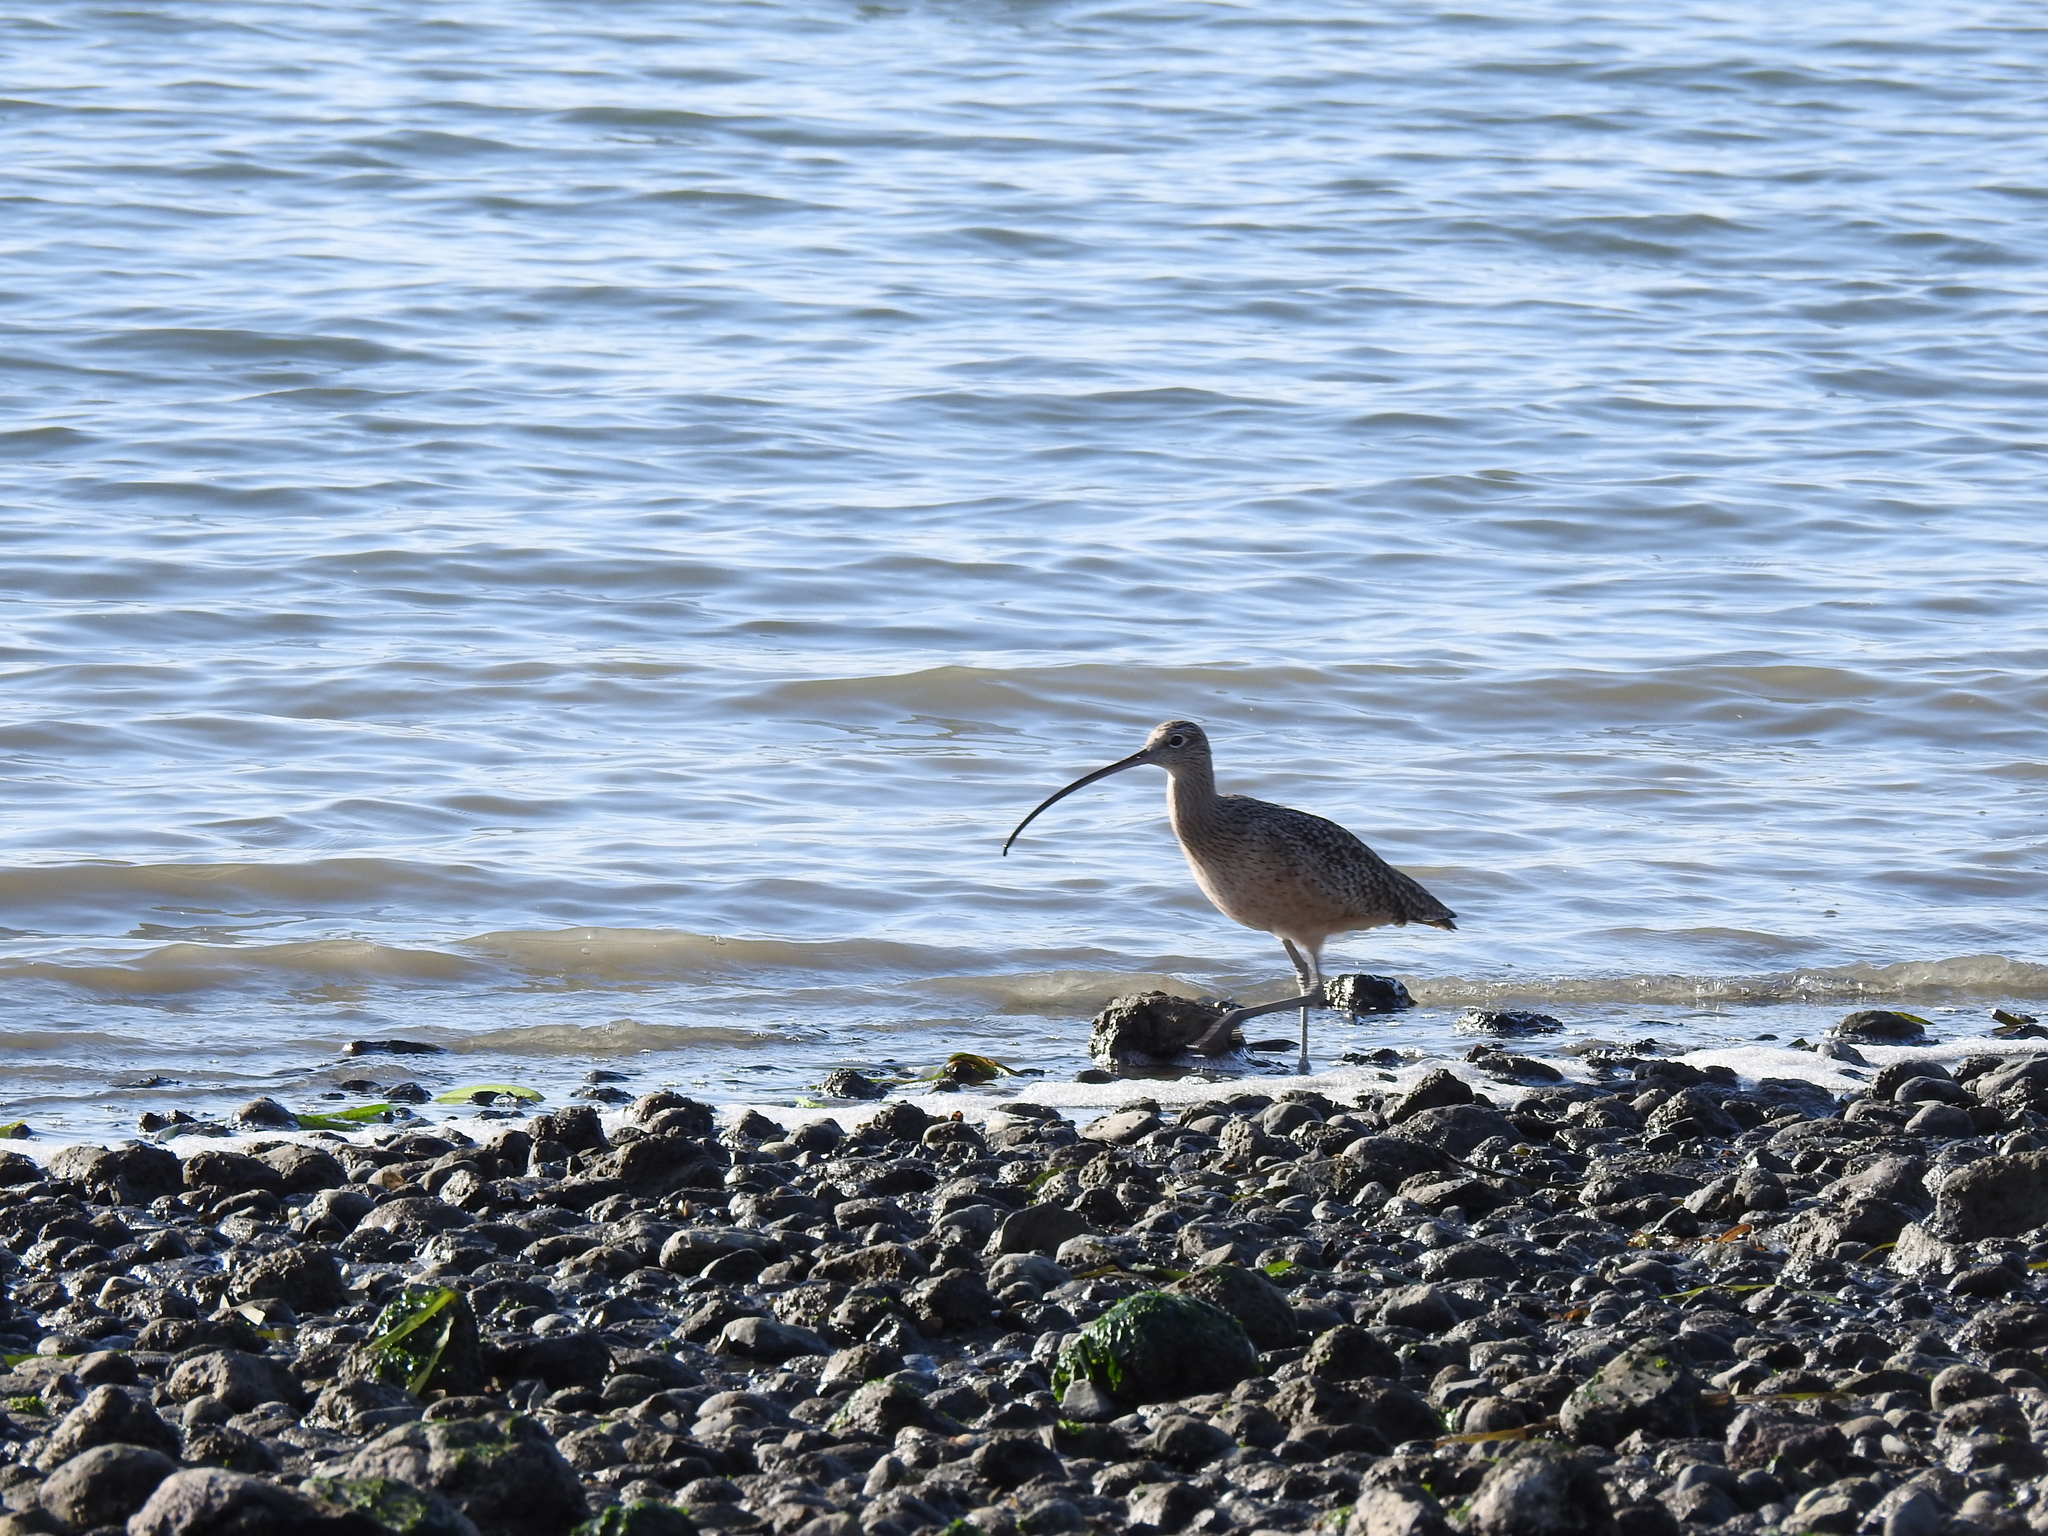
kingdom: Animalia
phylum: Chordata
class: Aves
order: Charadriiformes
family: Scolopacidae
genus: Numenius
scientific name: Numenius americanus
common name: Long-billed curlew
